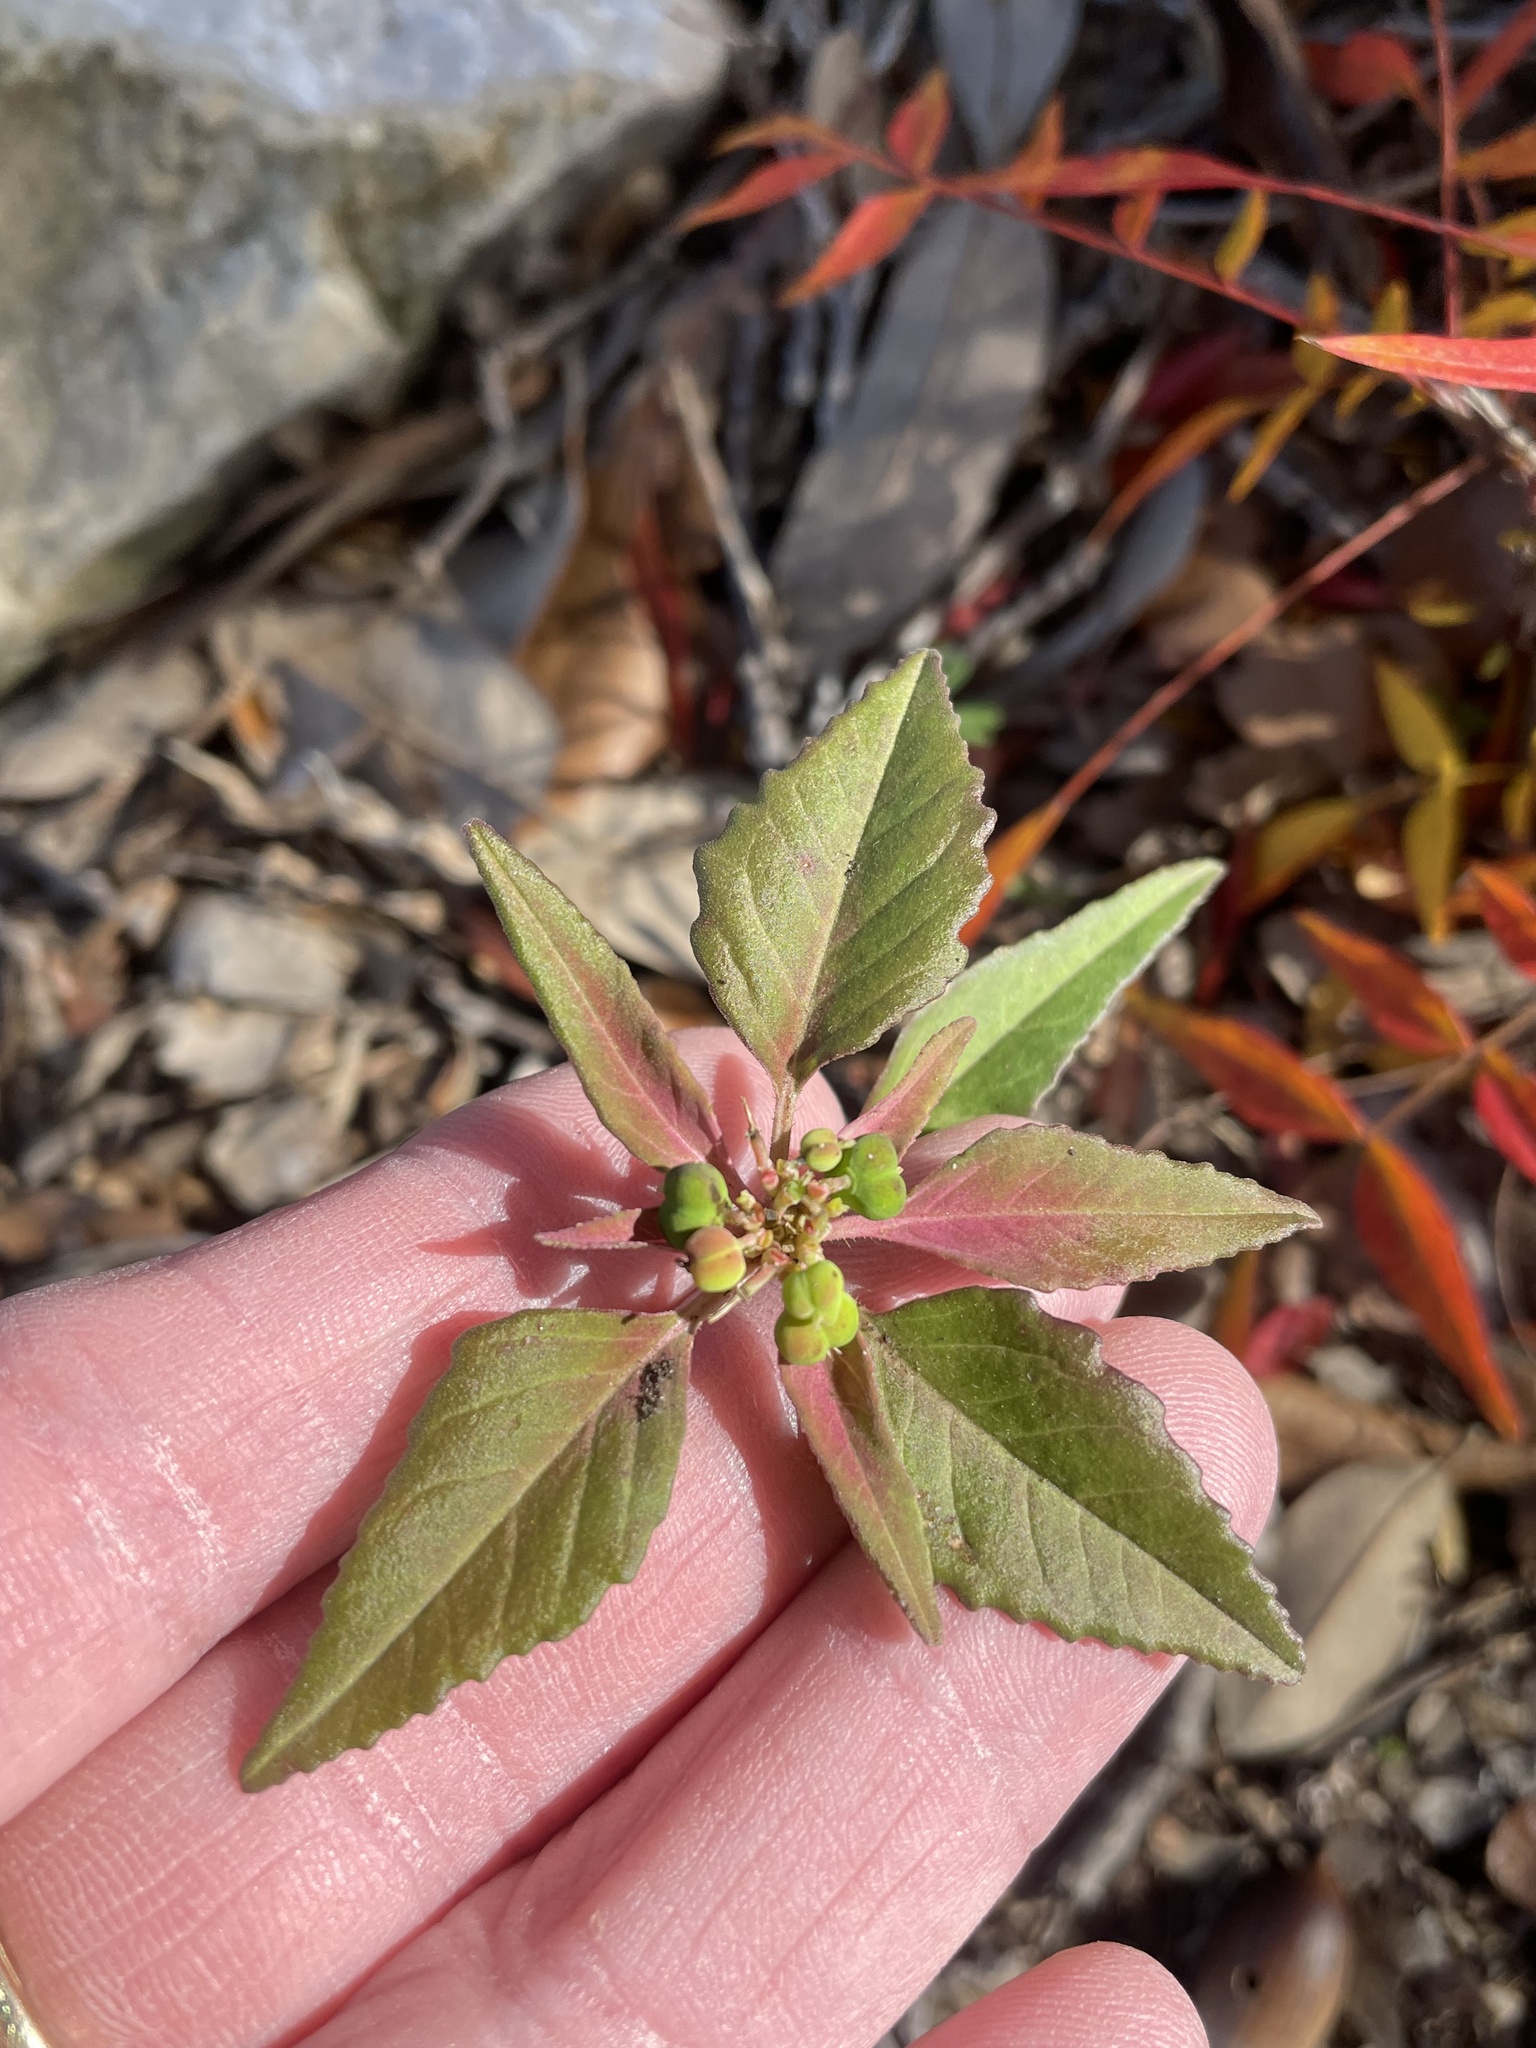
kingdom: Plantae
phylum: Tracheophyta
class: Magnoliopsida
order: Malpighiales
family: Euphorbiaceae
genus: Euphorbia
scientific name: Euphorbia dentata
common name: Dentate spurge
